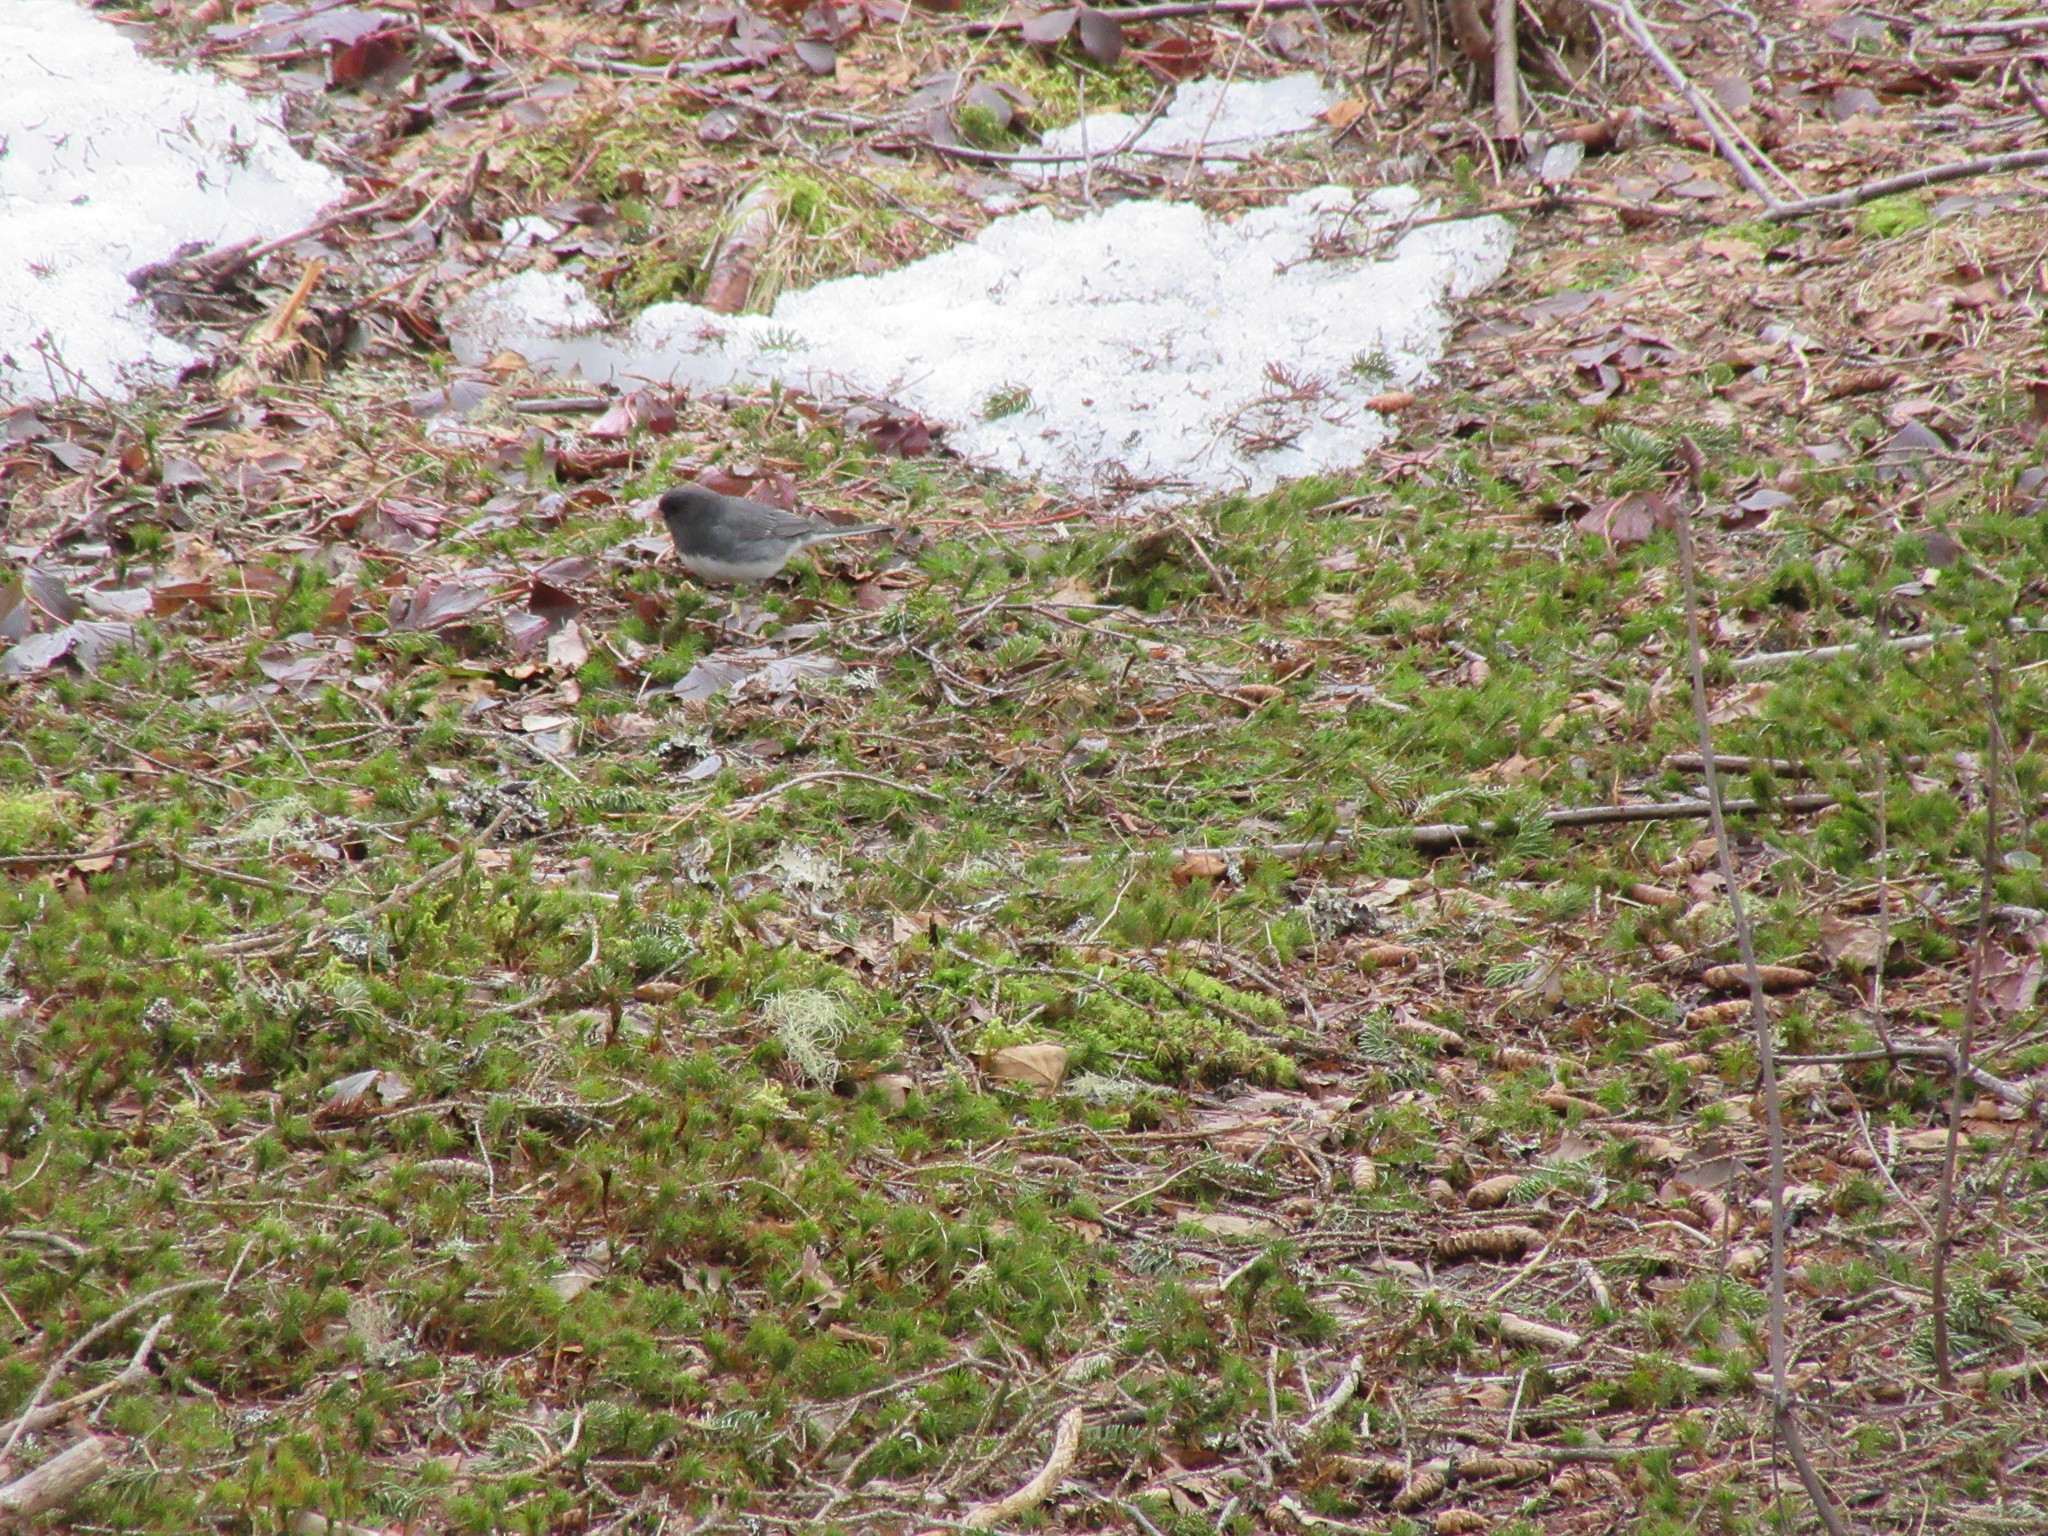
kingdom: Animalia
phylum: Chordata
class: Aves
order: Passeriformes
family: Passerellidae
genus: Junco
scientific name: Junco hyemalis
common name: Dark-eyed junco
